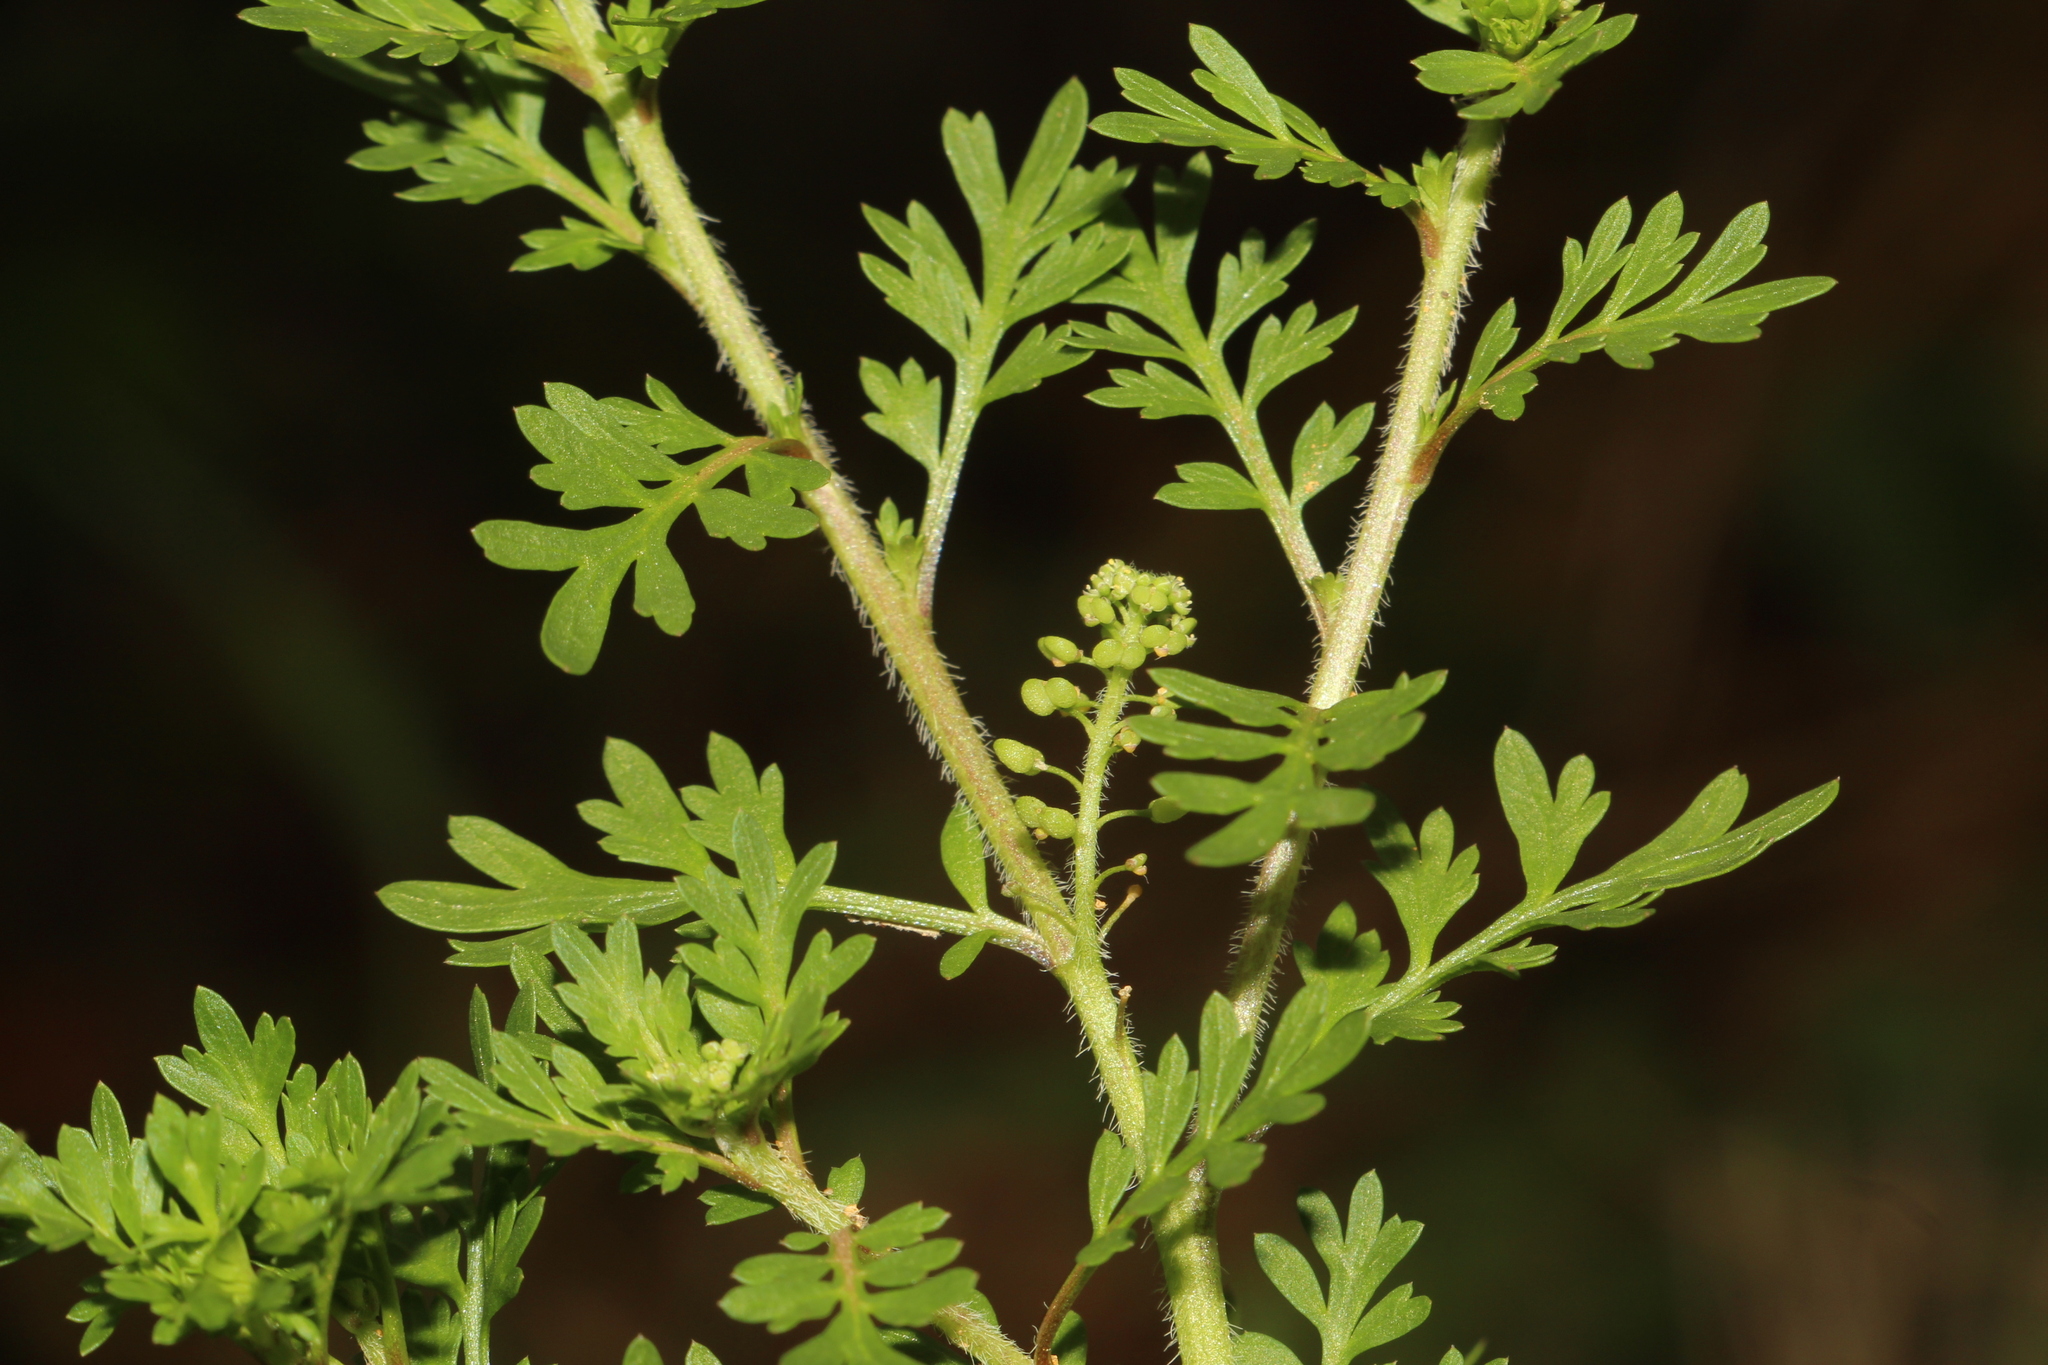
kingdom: Plantae
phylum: Tracheophyta
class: Magnoliopsida
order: Brassicales
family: Brassicaceae
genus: Lepidium
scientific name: Lepidium didymum
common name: Lesser swinecress
